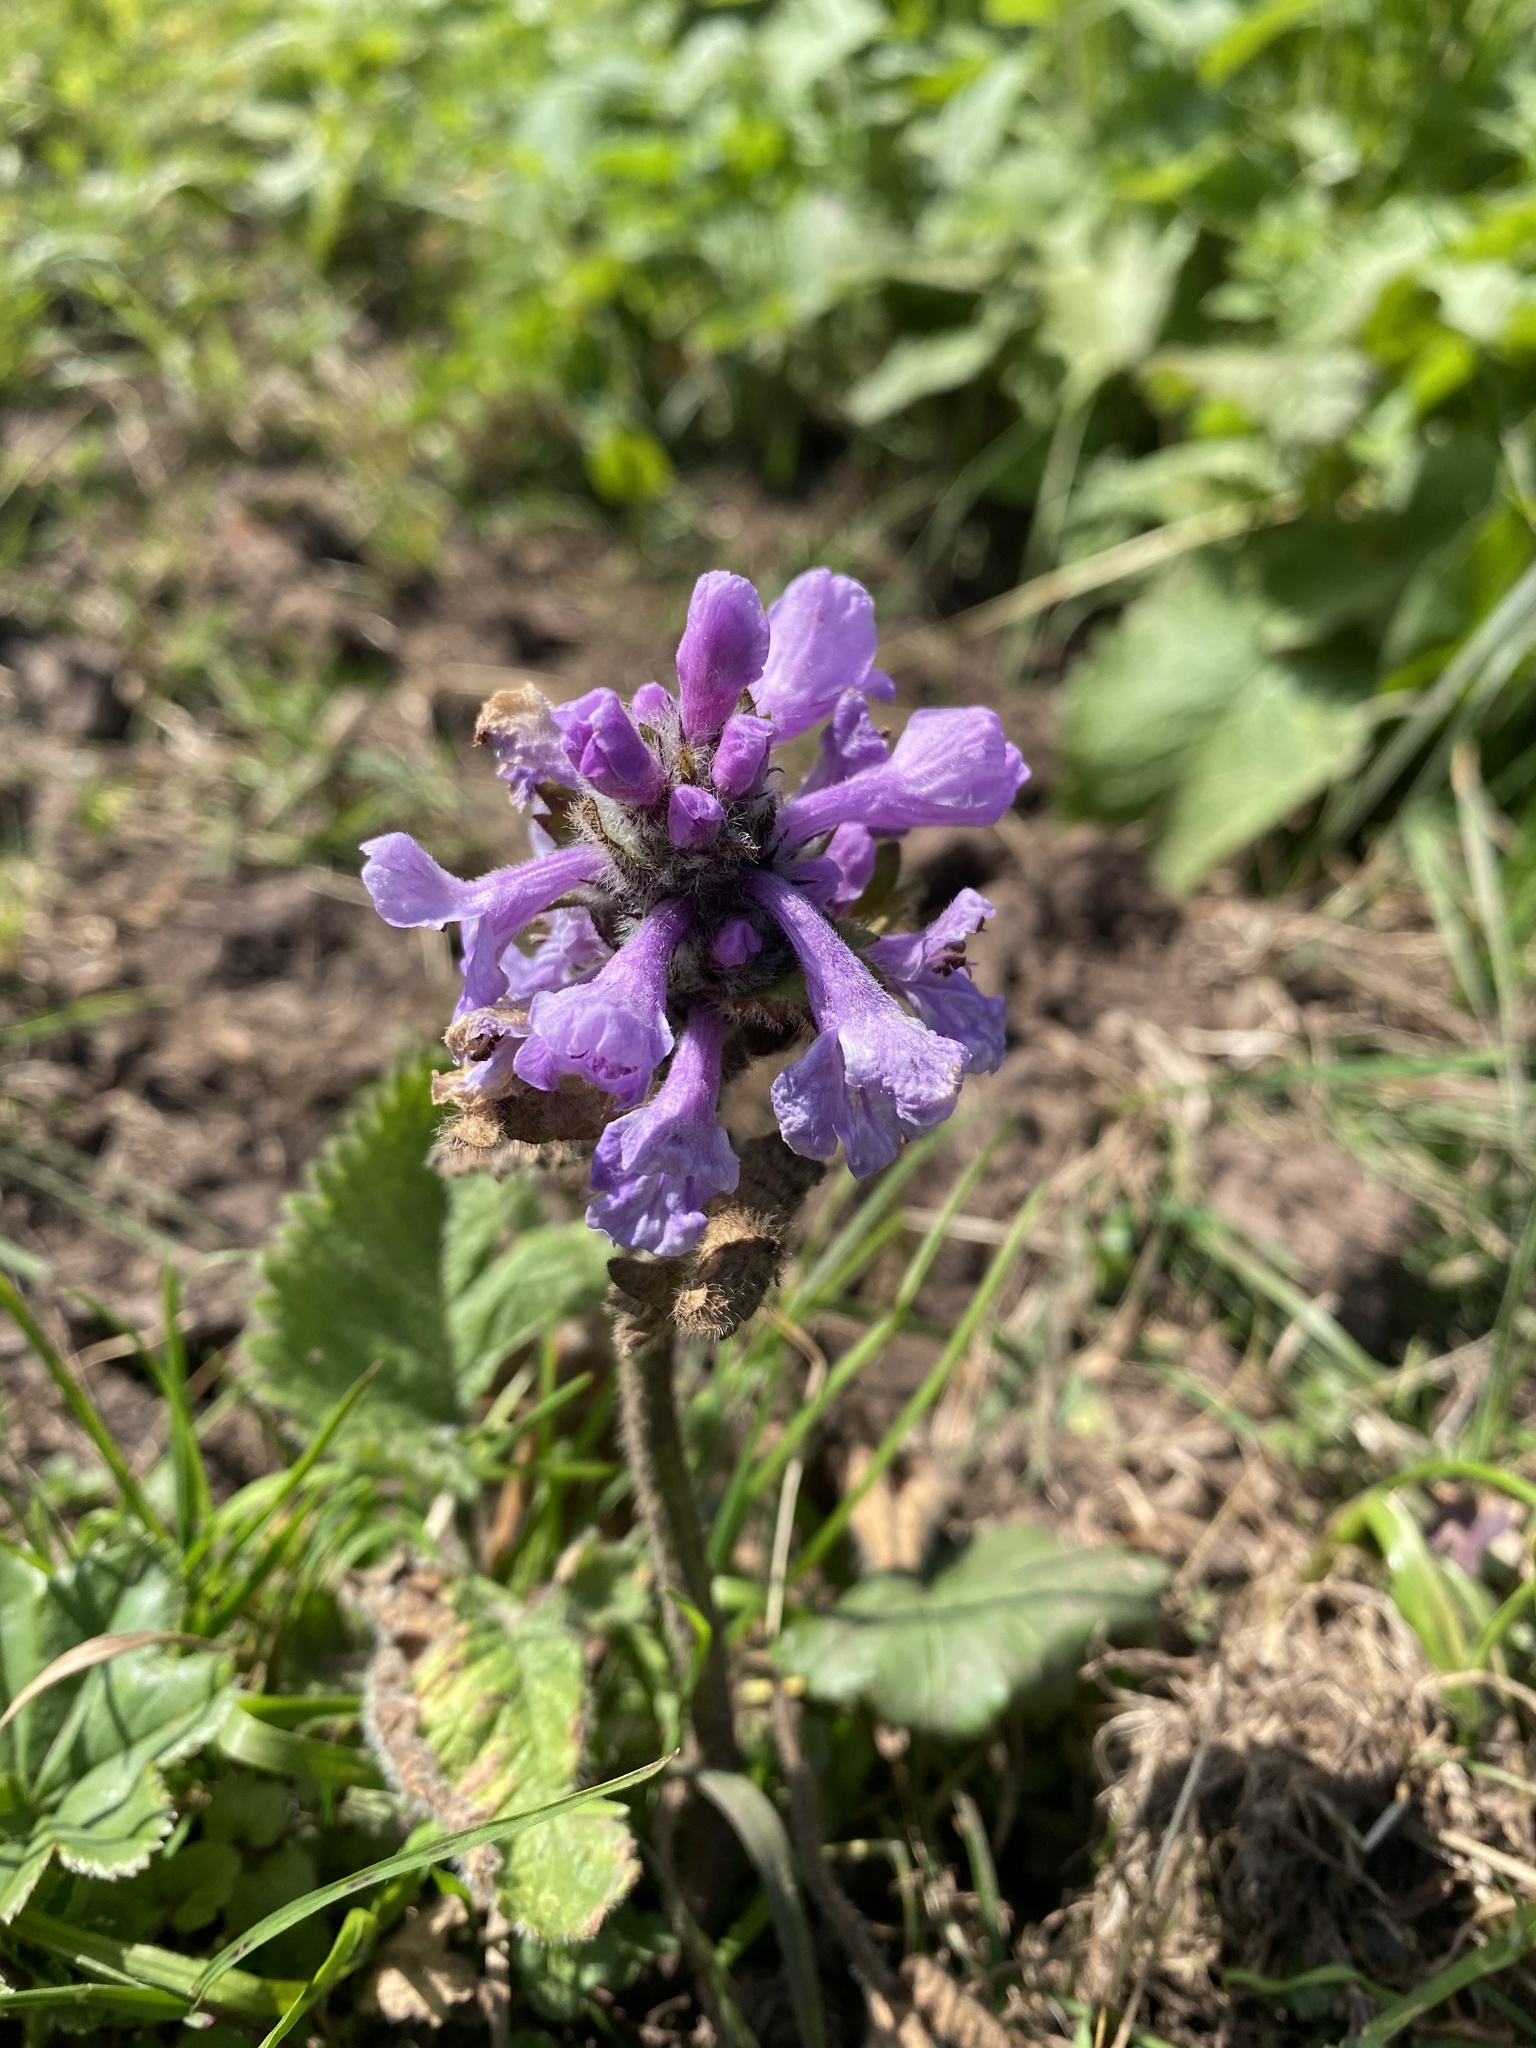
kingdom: Plantae
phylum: Tracheophyta
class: Magnoliopsida
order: Lamiales
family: Lamiaceae
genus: Betonica
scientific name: Betonica macrantha
